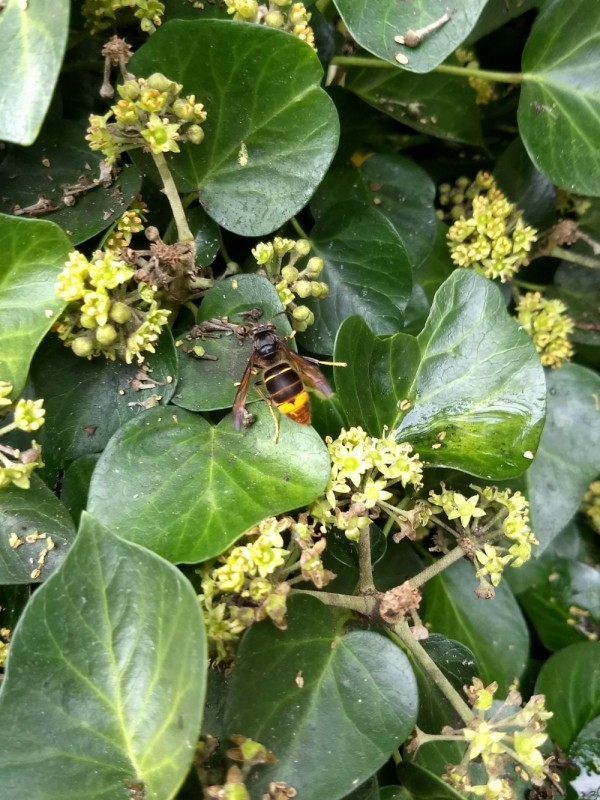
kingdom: Animalia
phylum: Arthropoda
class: Insecta
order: Hymenoptera
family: Vespidae
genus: Vespa
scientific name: Vespa velutina
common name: Asian hornet
